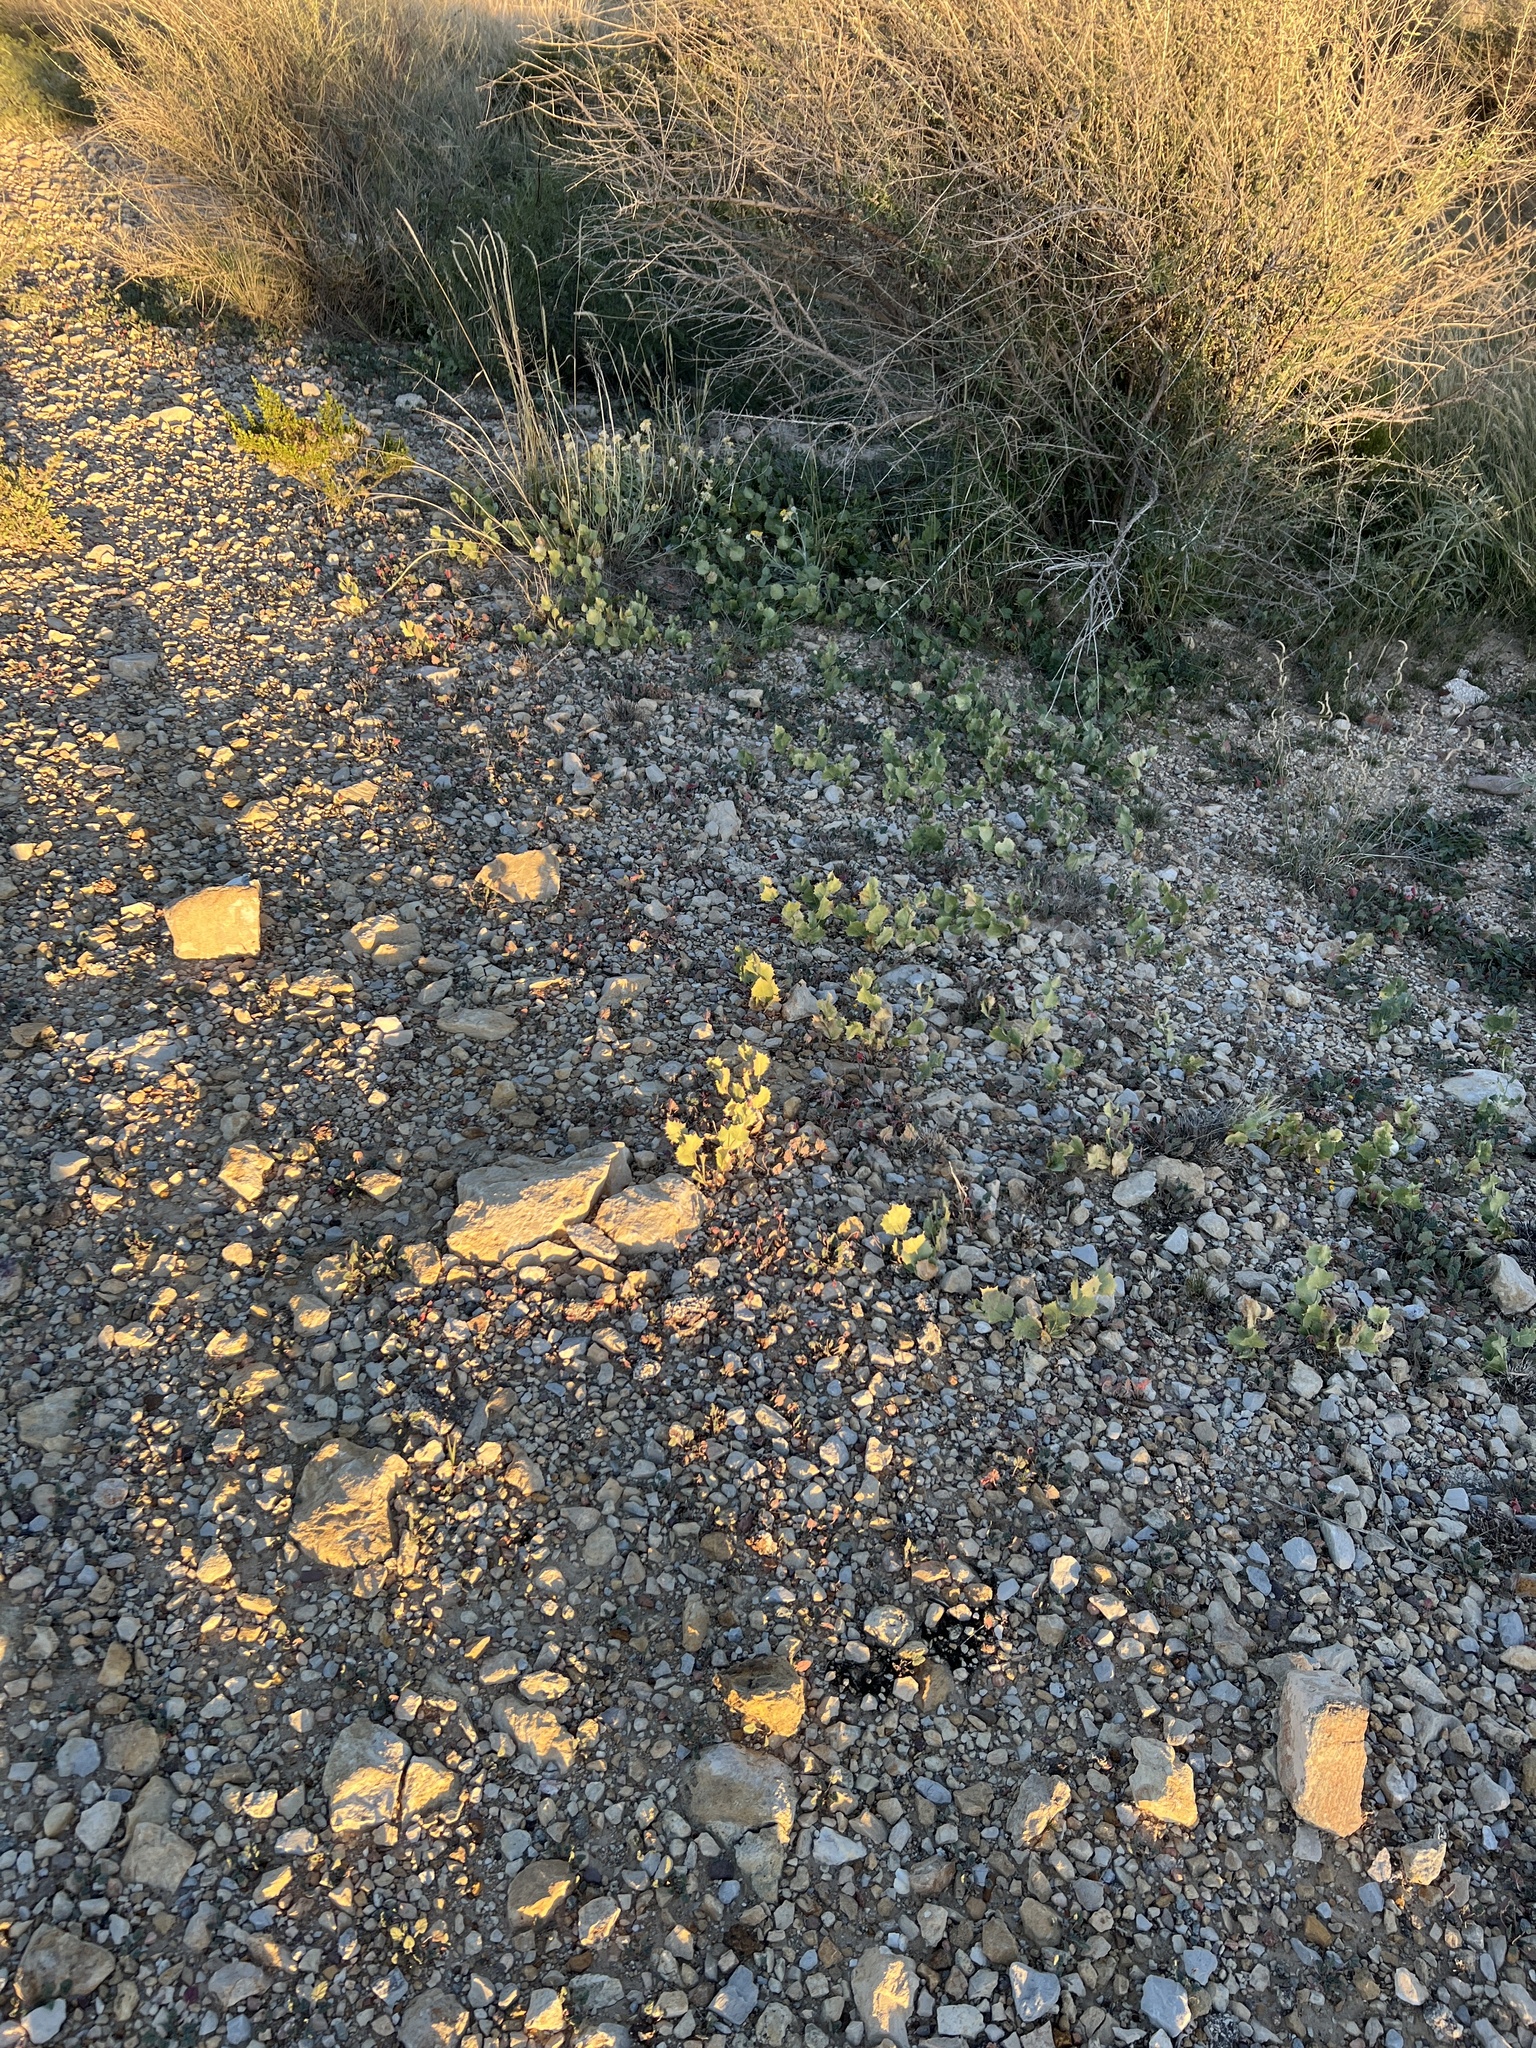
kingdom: Plantae
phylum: Tracheophyta
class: Magnoliopsida
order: Asterales
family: Asteraceae
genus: Acourtia
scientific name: Acourtia nana
